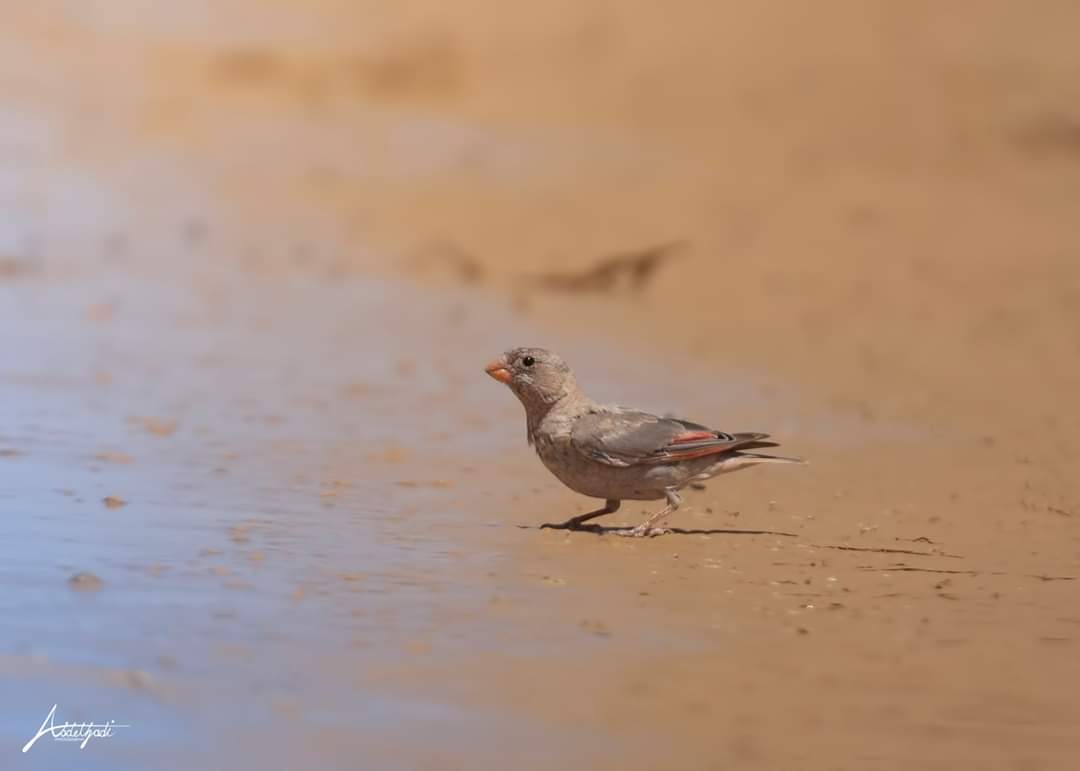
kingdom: Animalia
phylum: Chordata
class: Aves
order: Passeriformes
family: Fringillidae
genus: Bucanetes
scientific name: Bucanetes githagineus
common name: Trumpeter finch
